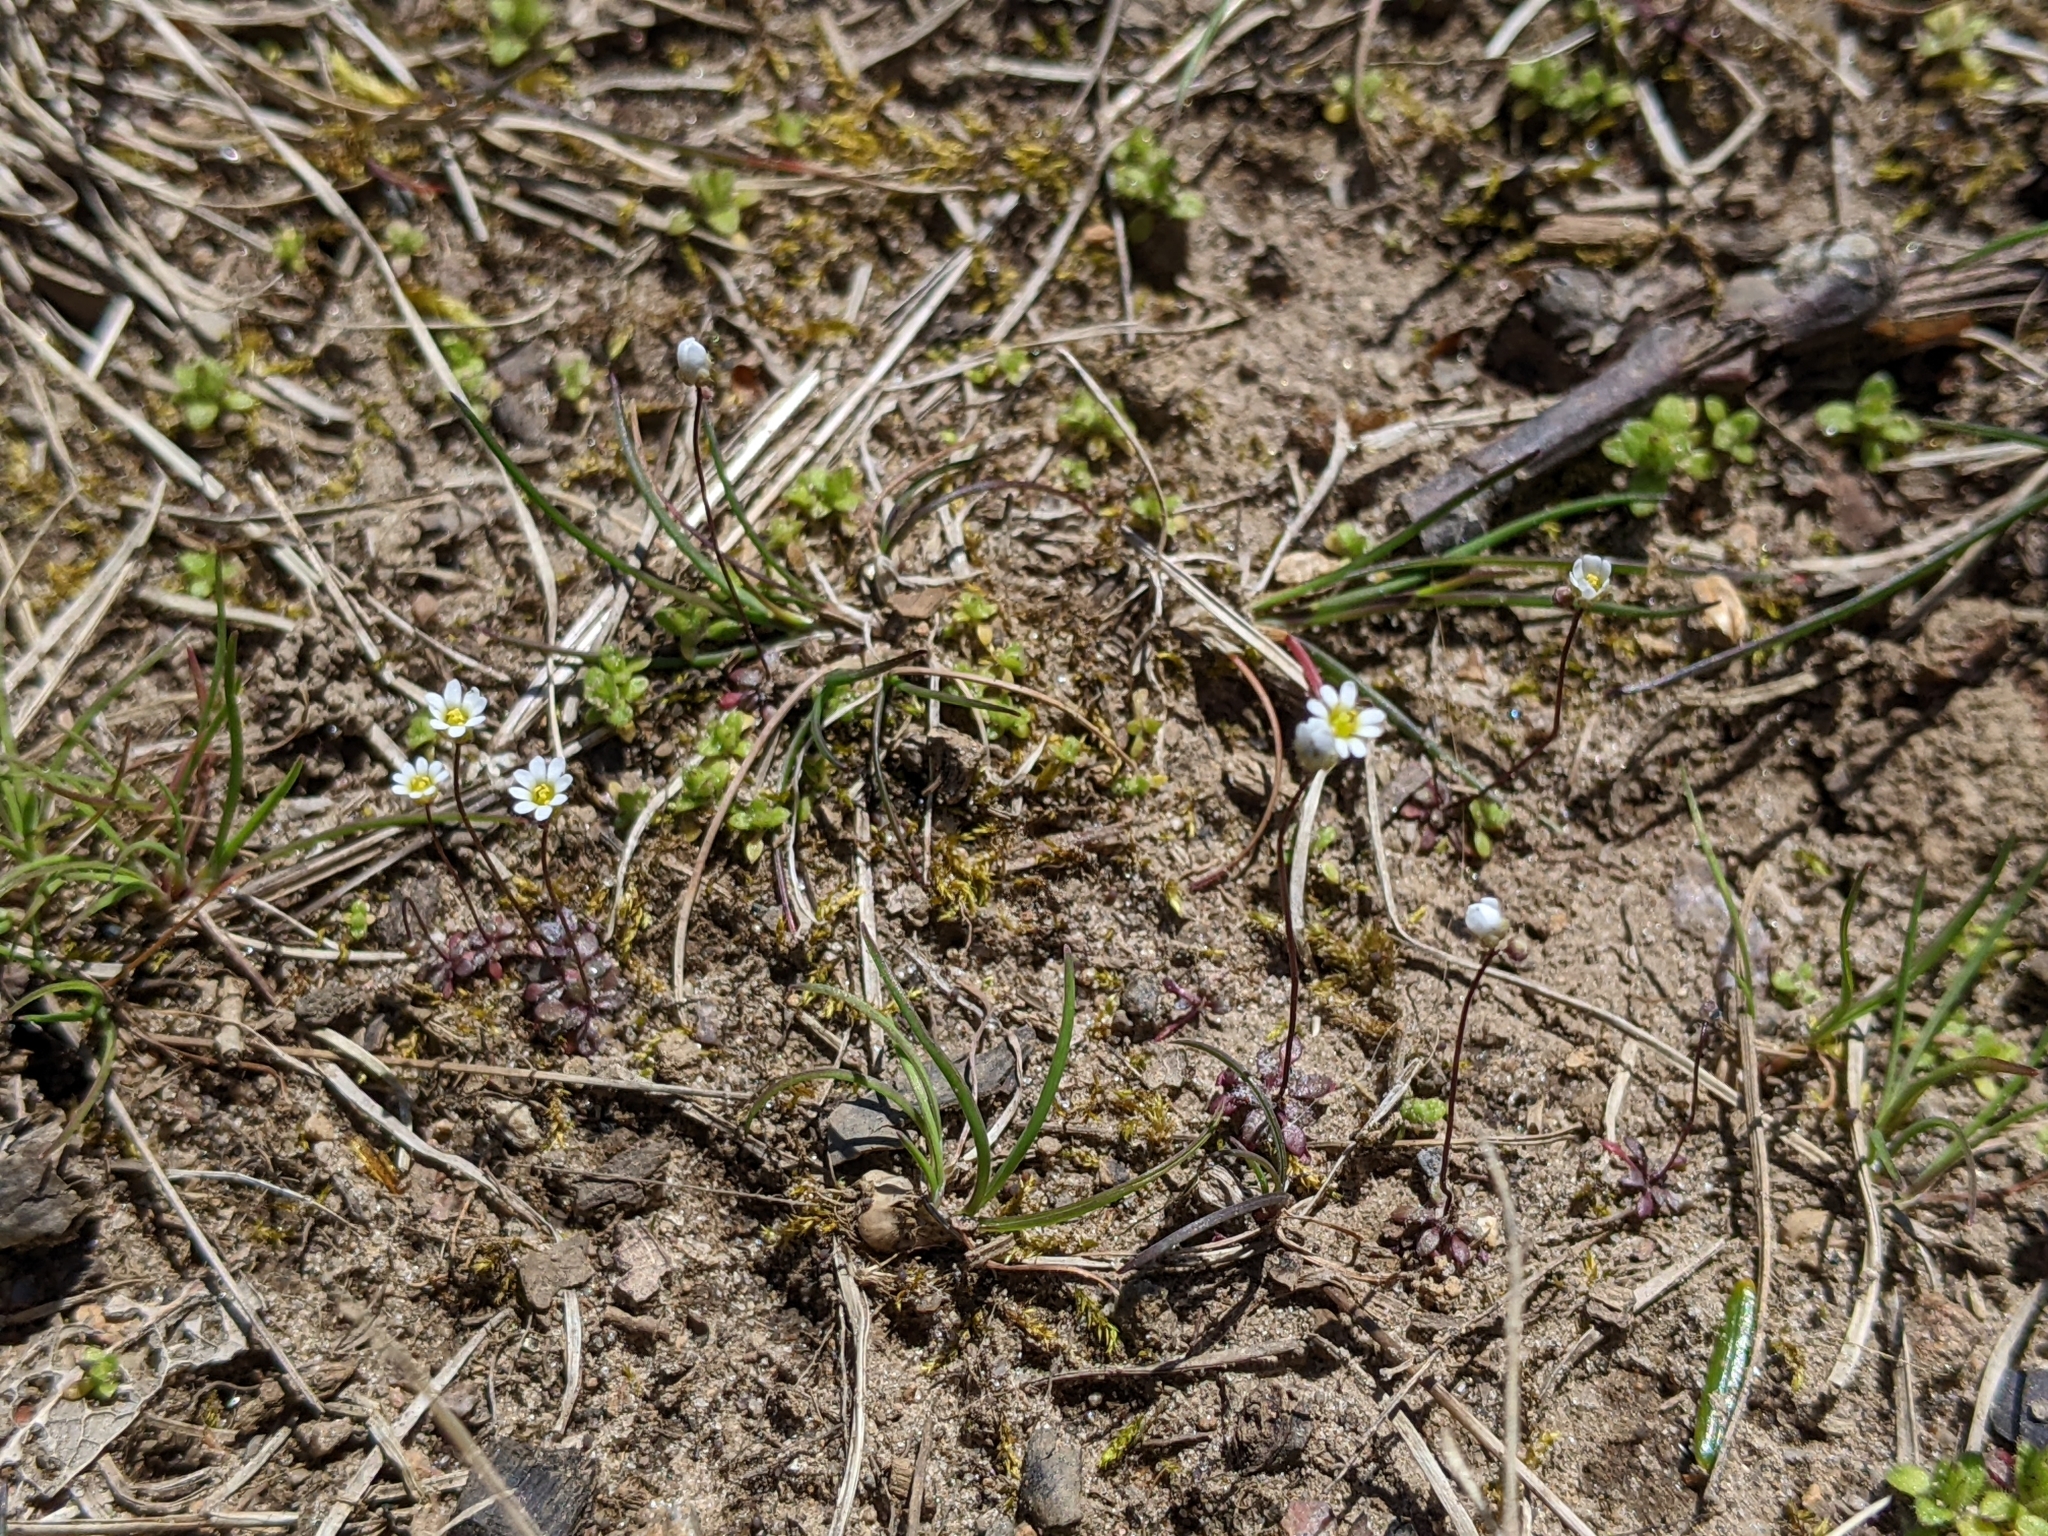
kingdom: Plantae
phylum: Tracheophyta
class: Magnoliopsida
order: Brassicales
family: Brassicaceae
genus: Draba
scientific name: Draba verna
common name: Spring draba
